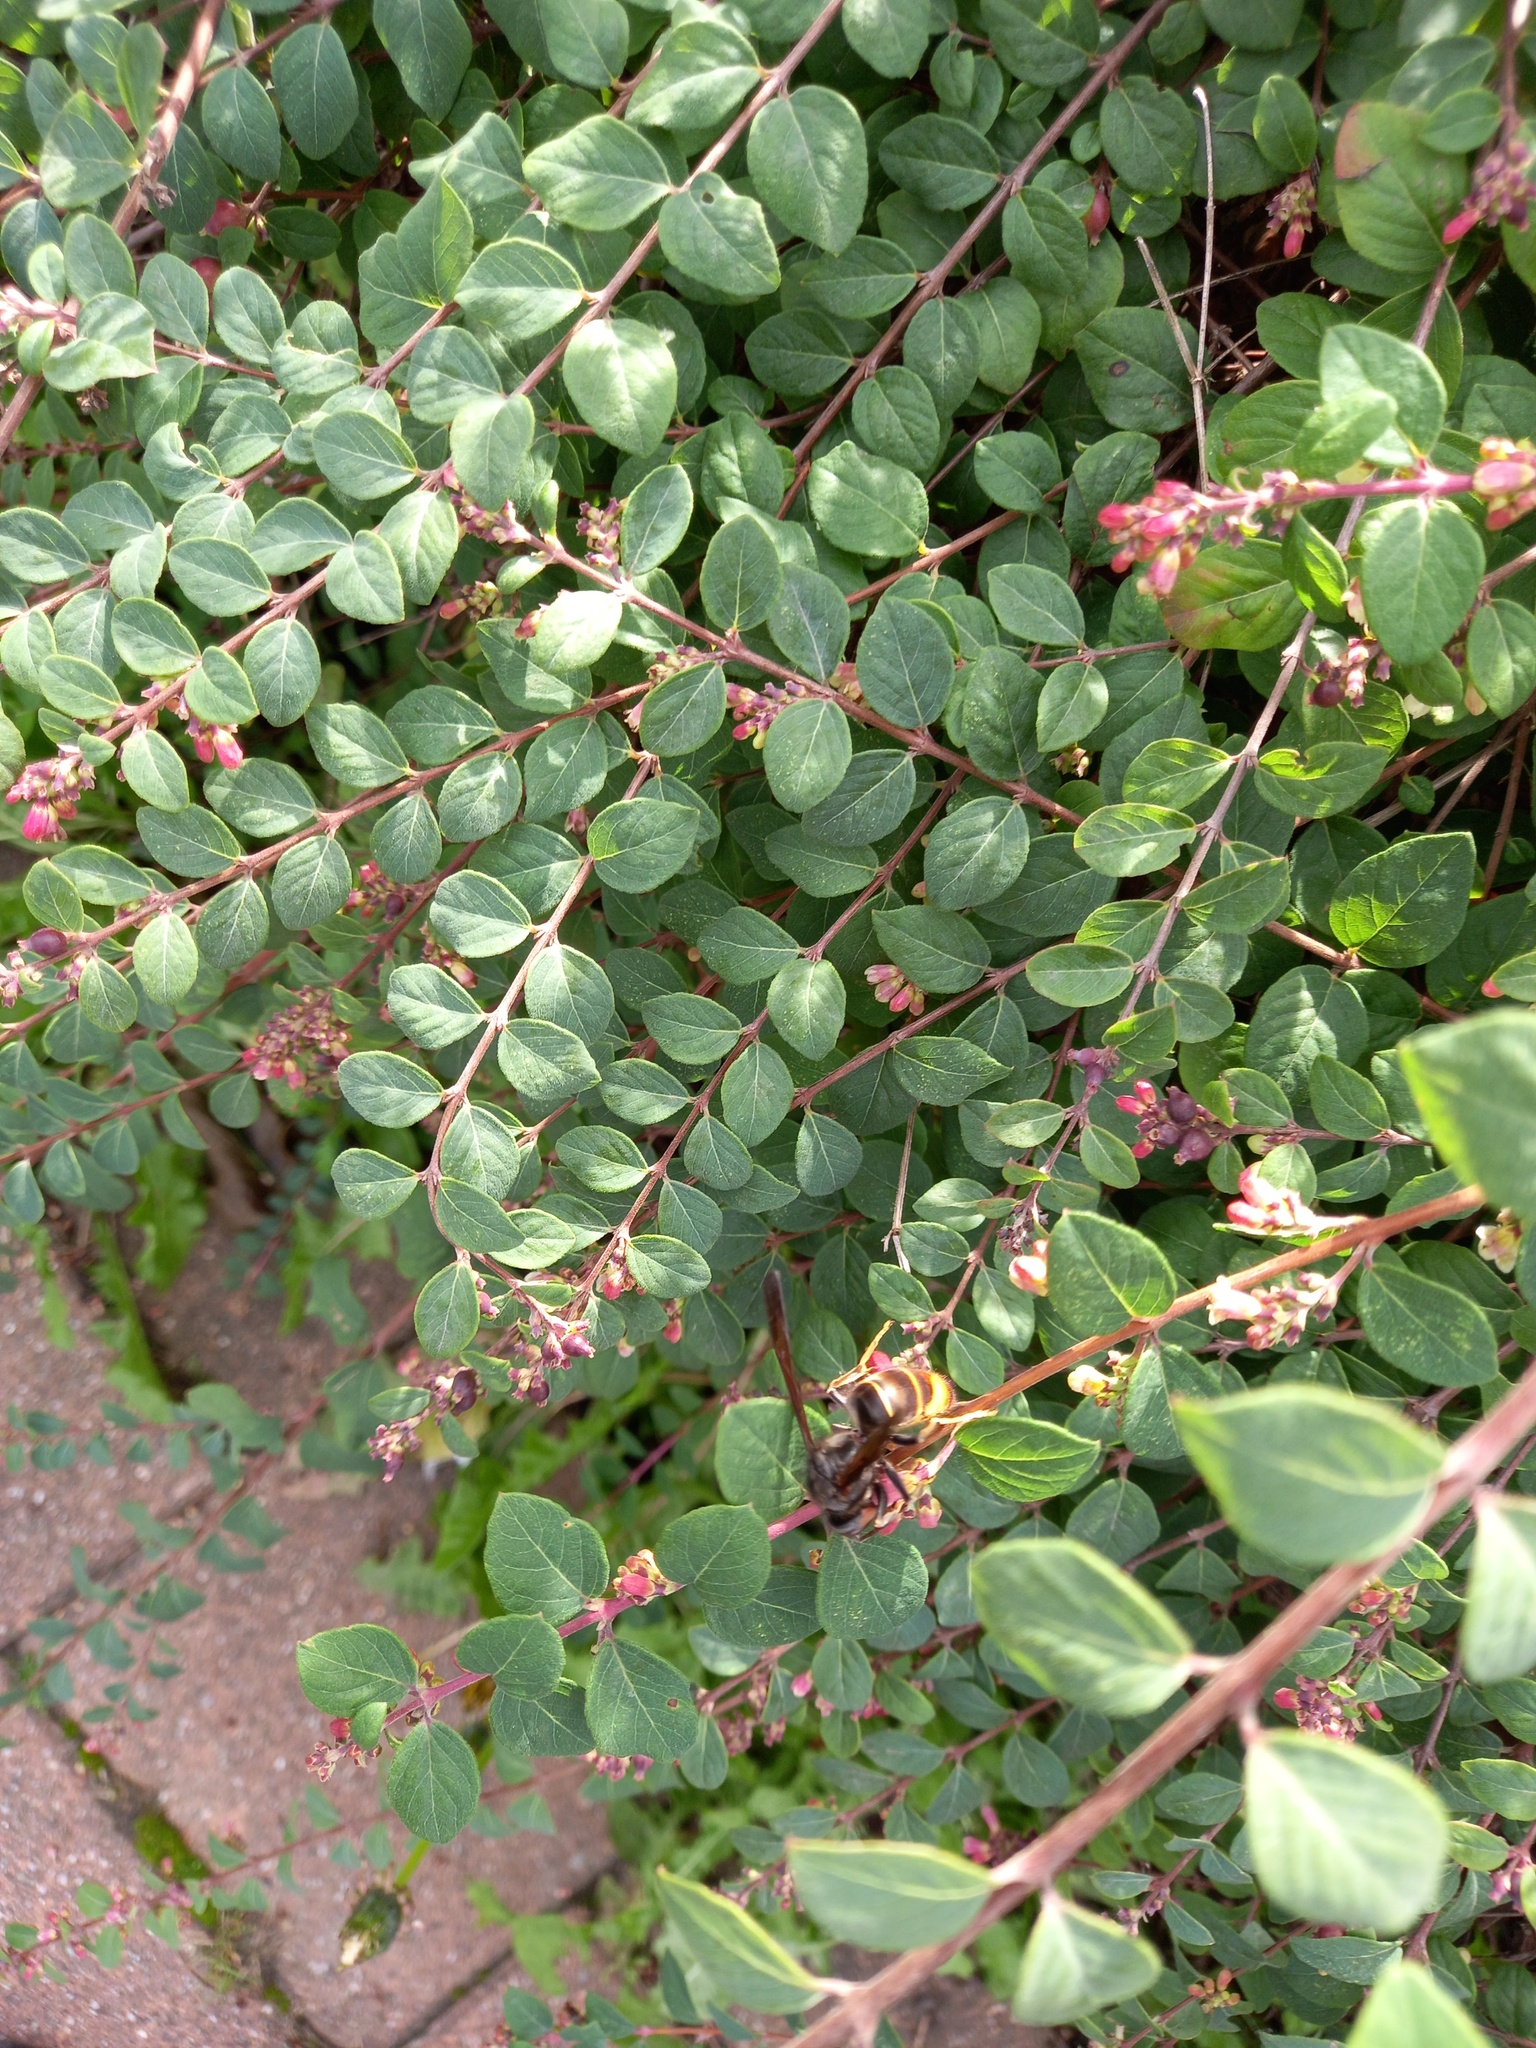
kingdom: Animalia
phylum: Arthropoda
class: Insecta
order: Hymenoptera
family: Vespidae
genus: Vespa
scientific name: Vespa velutina
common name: Asian hornet
